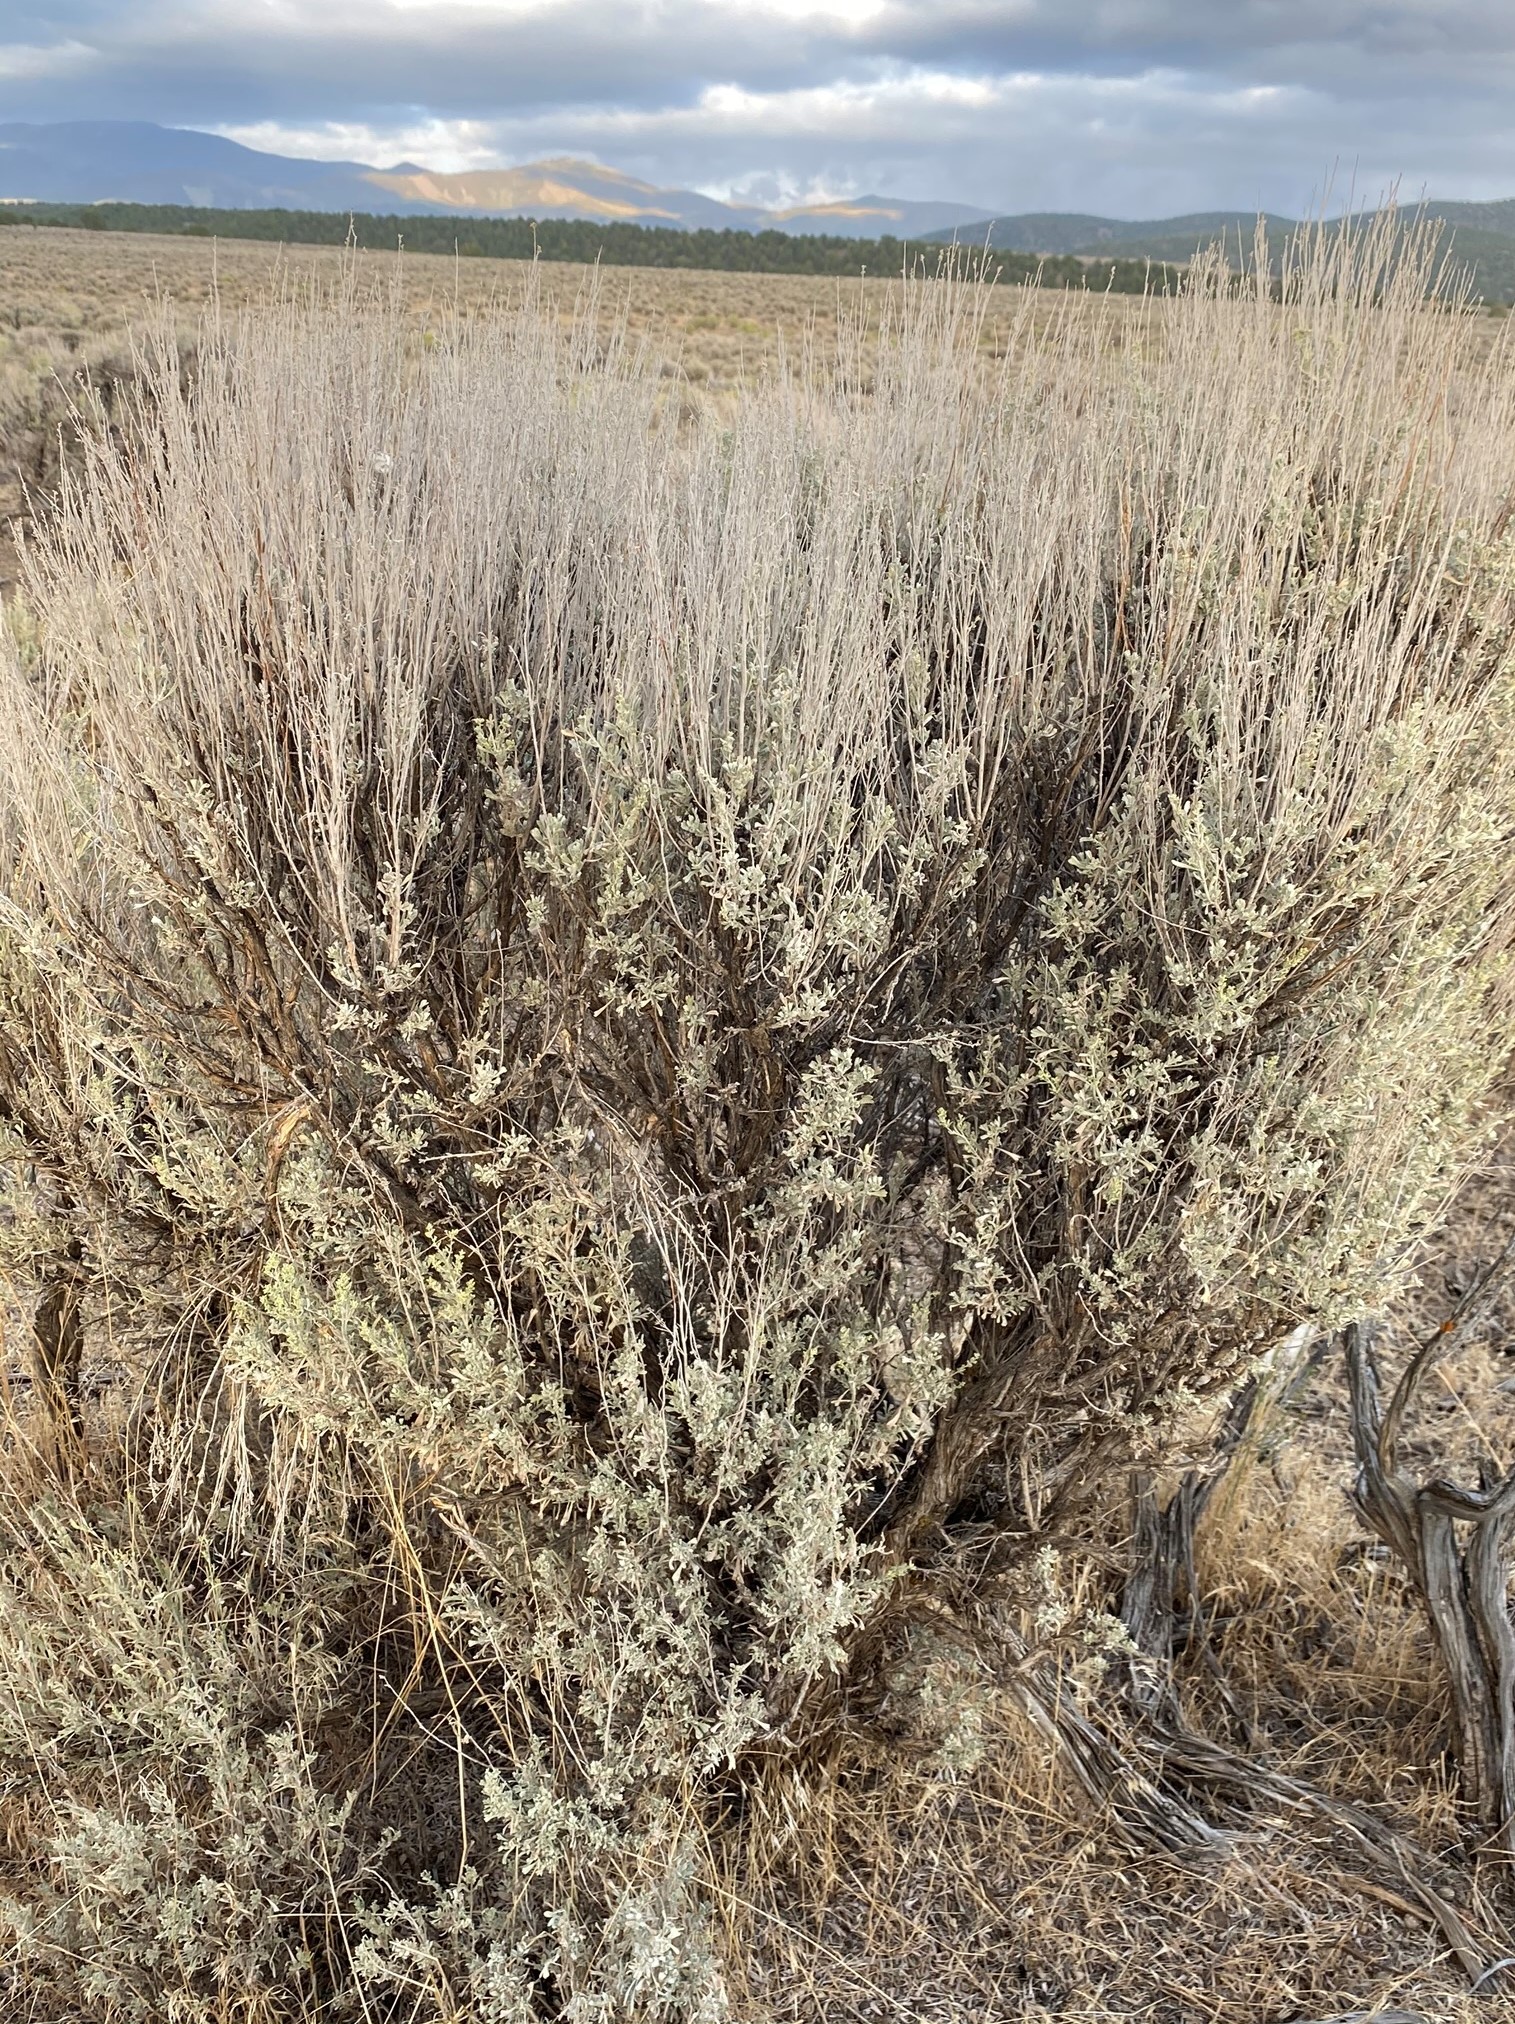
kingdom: Plantae
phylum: Tracheophyta
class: Magnoliopsida
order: Asterales
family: Asteraceae
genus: Artemisia
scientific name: Artemisia tridentata
